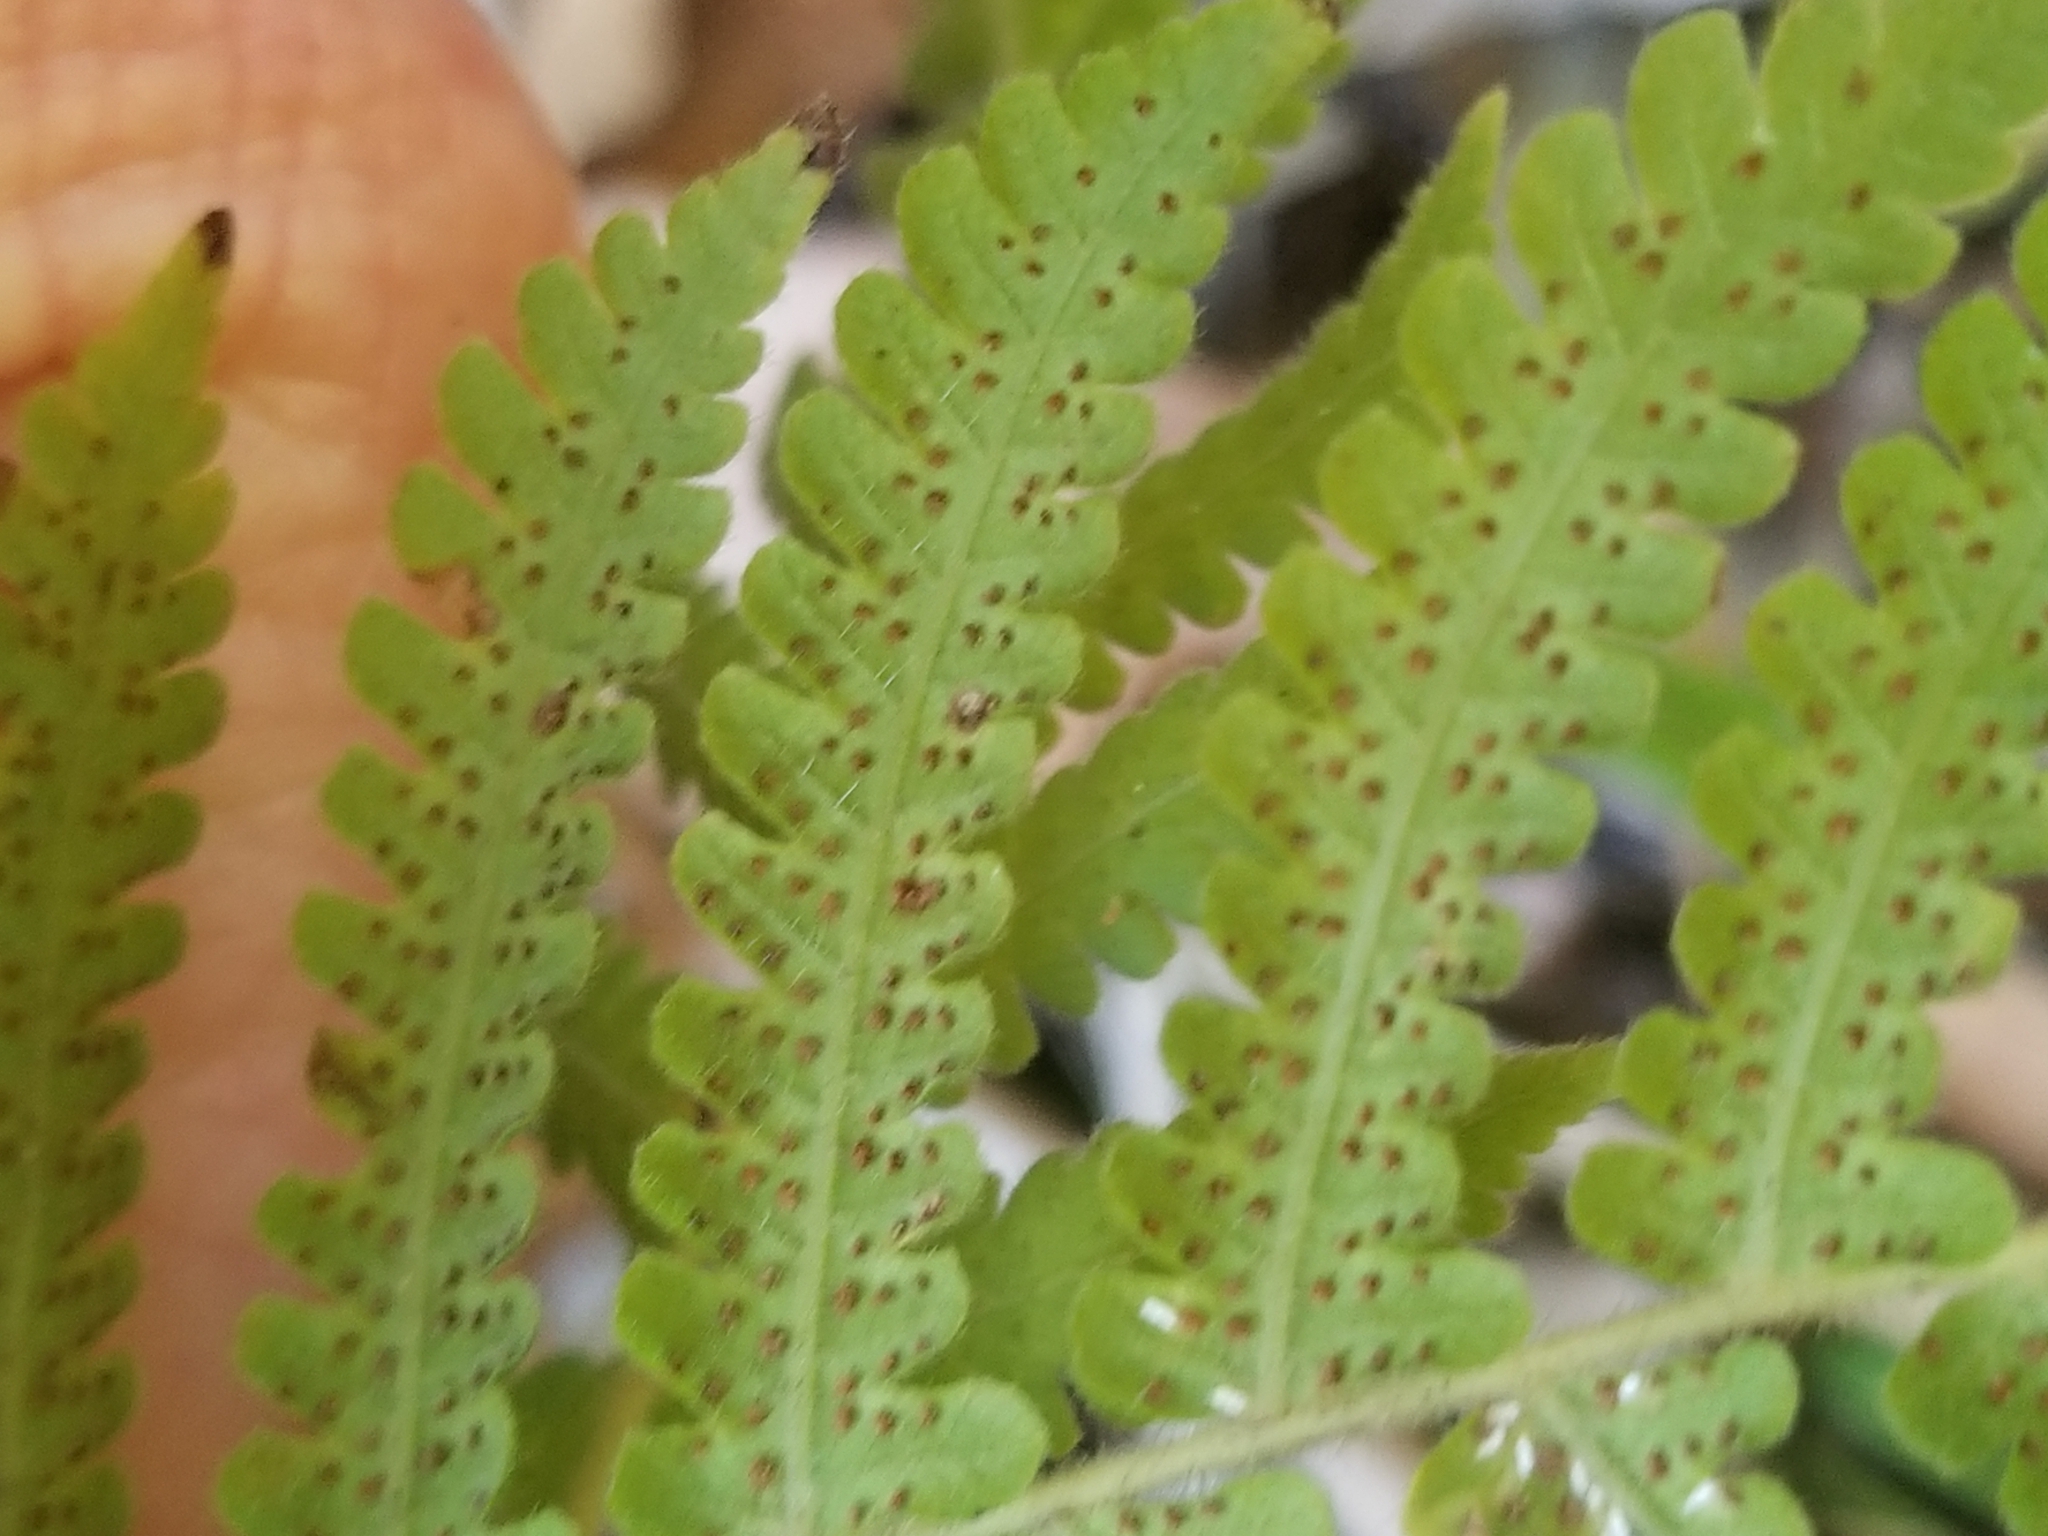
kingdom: Plantae
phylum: Tracheophyta
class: Polypodiopsida
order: Polypodiales
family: Thelypteridaceae
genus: Christella
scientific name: Christella parasitica
